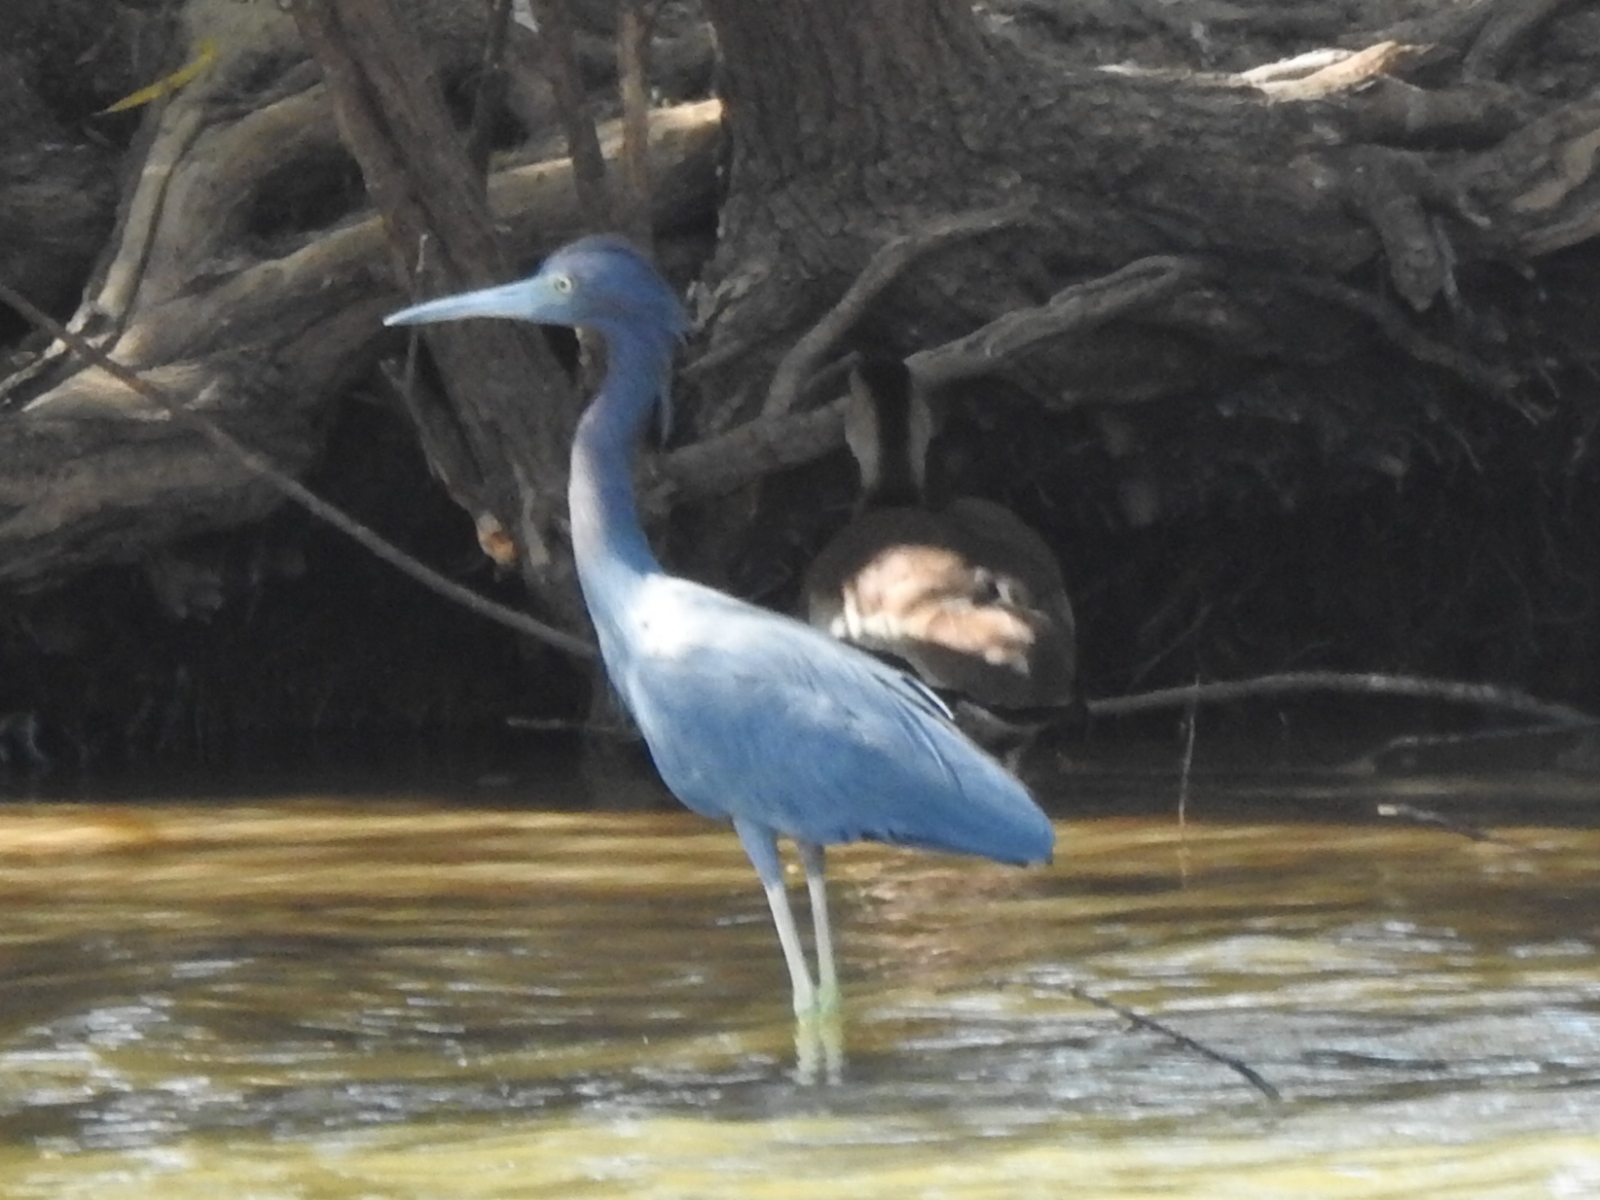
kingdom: Animalia
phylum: Chordata
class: Aves
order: Pelecaniformes
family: Ardeidae
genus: Egretta
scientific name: Egretta caerulea
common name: Little blue heron
